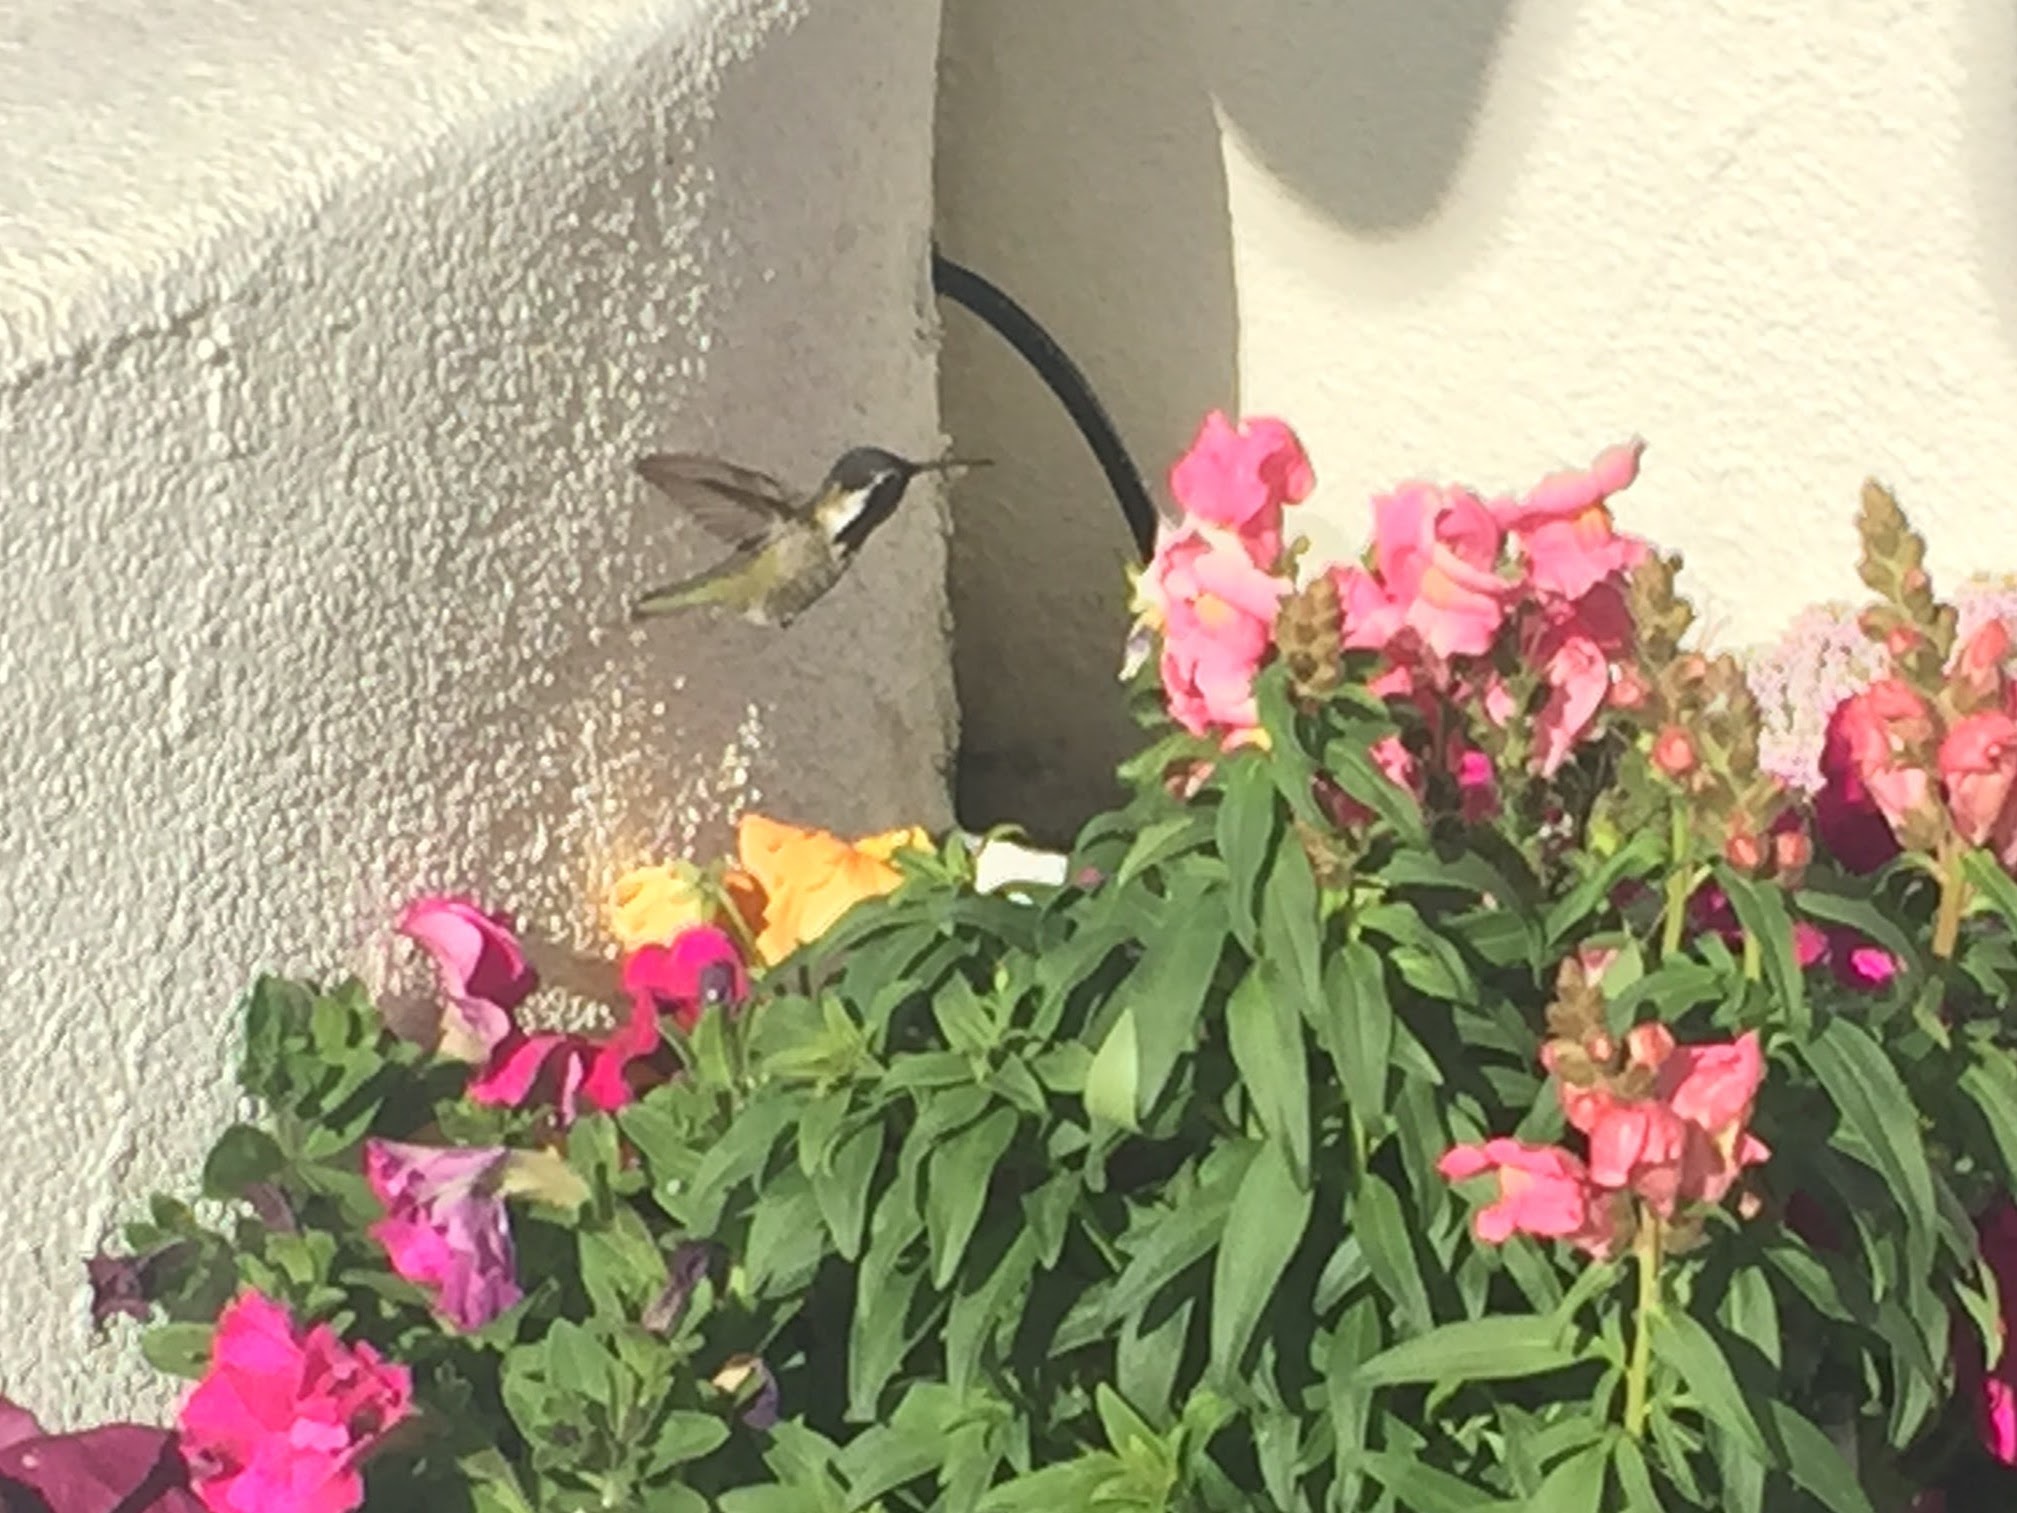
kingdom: Animalia
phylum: Chordata
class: Aves
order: Apodiformes
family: Trochilidae
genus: Calypte
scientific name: Calypte costae
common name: Costa's hummingbird
